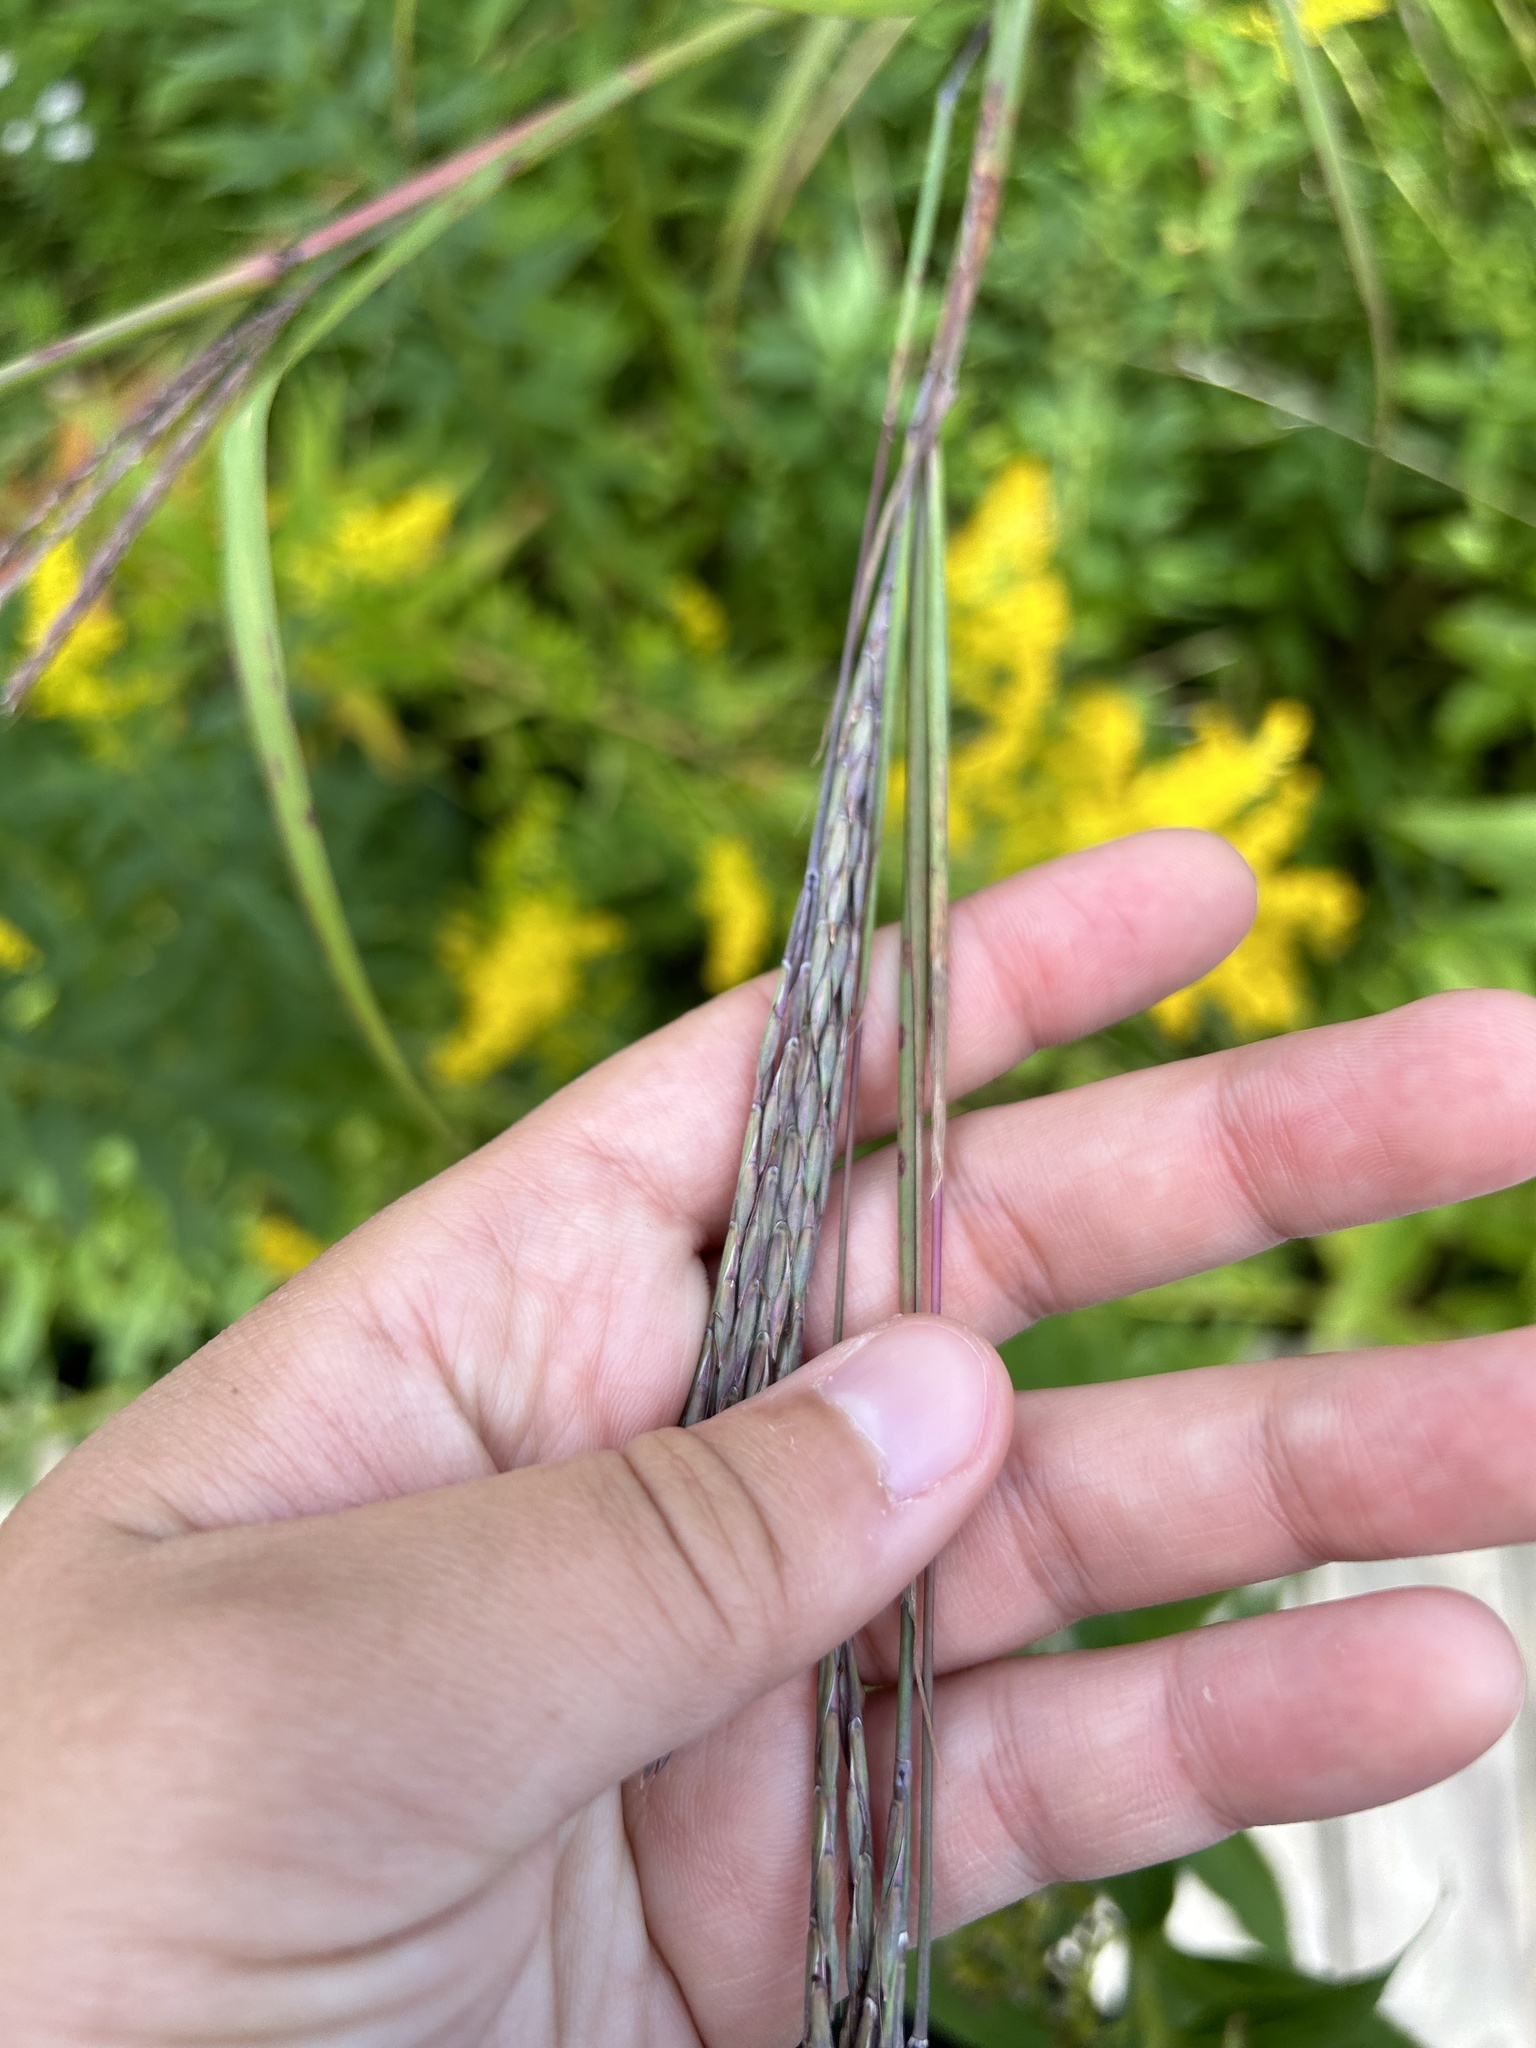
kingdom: Plantae
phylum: Tracheophyta
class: Liliopsida
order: Poales
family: Poaceae
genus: Andropogon
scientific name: Andropogon gerardi
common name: Big bluestem
